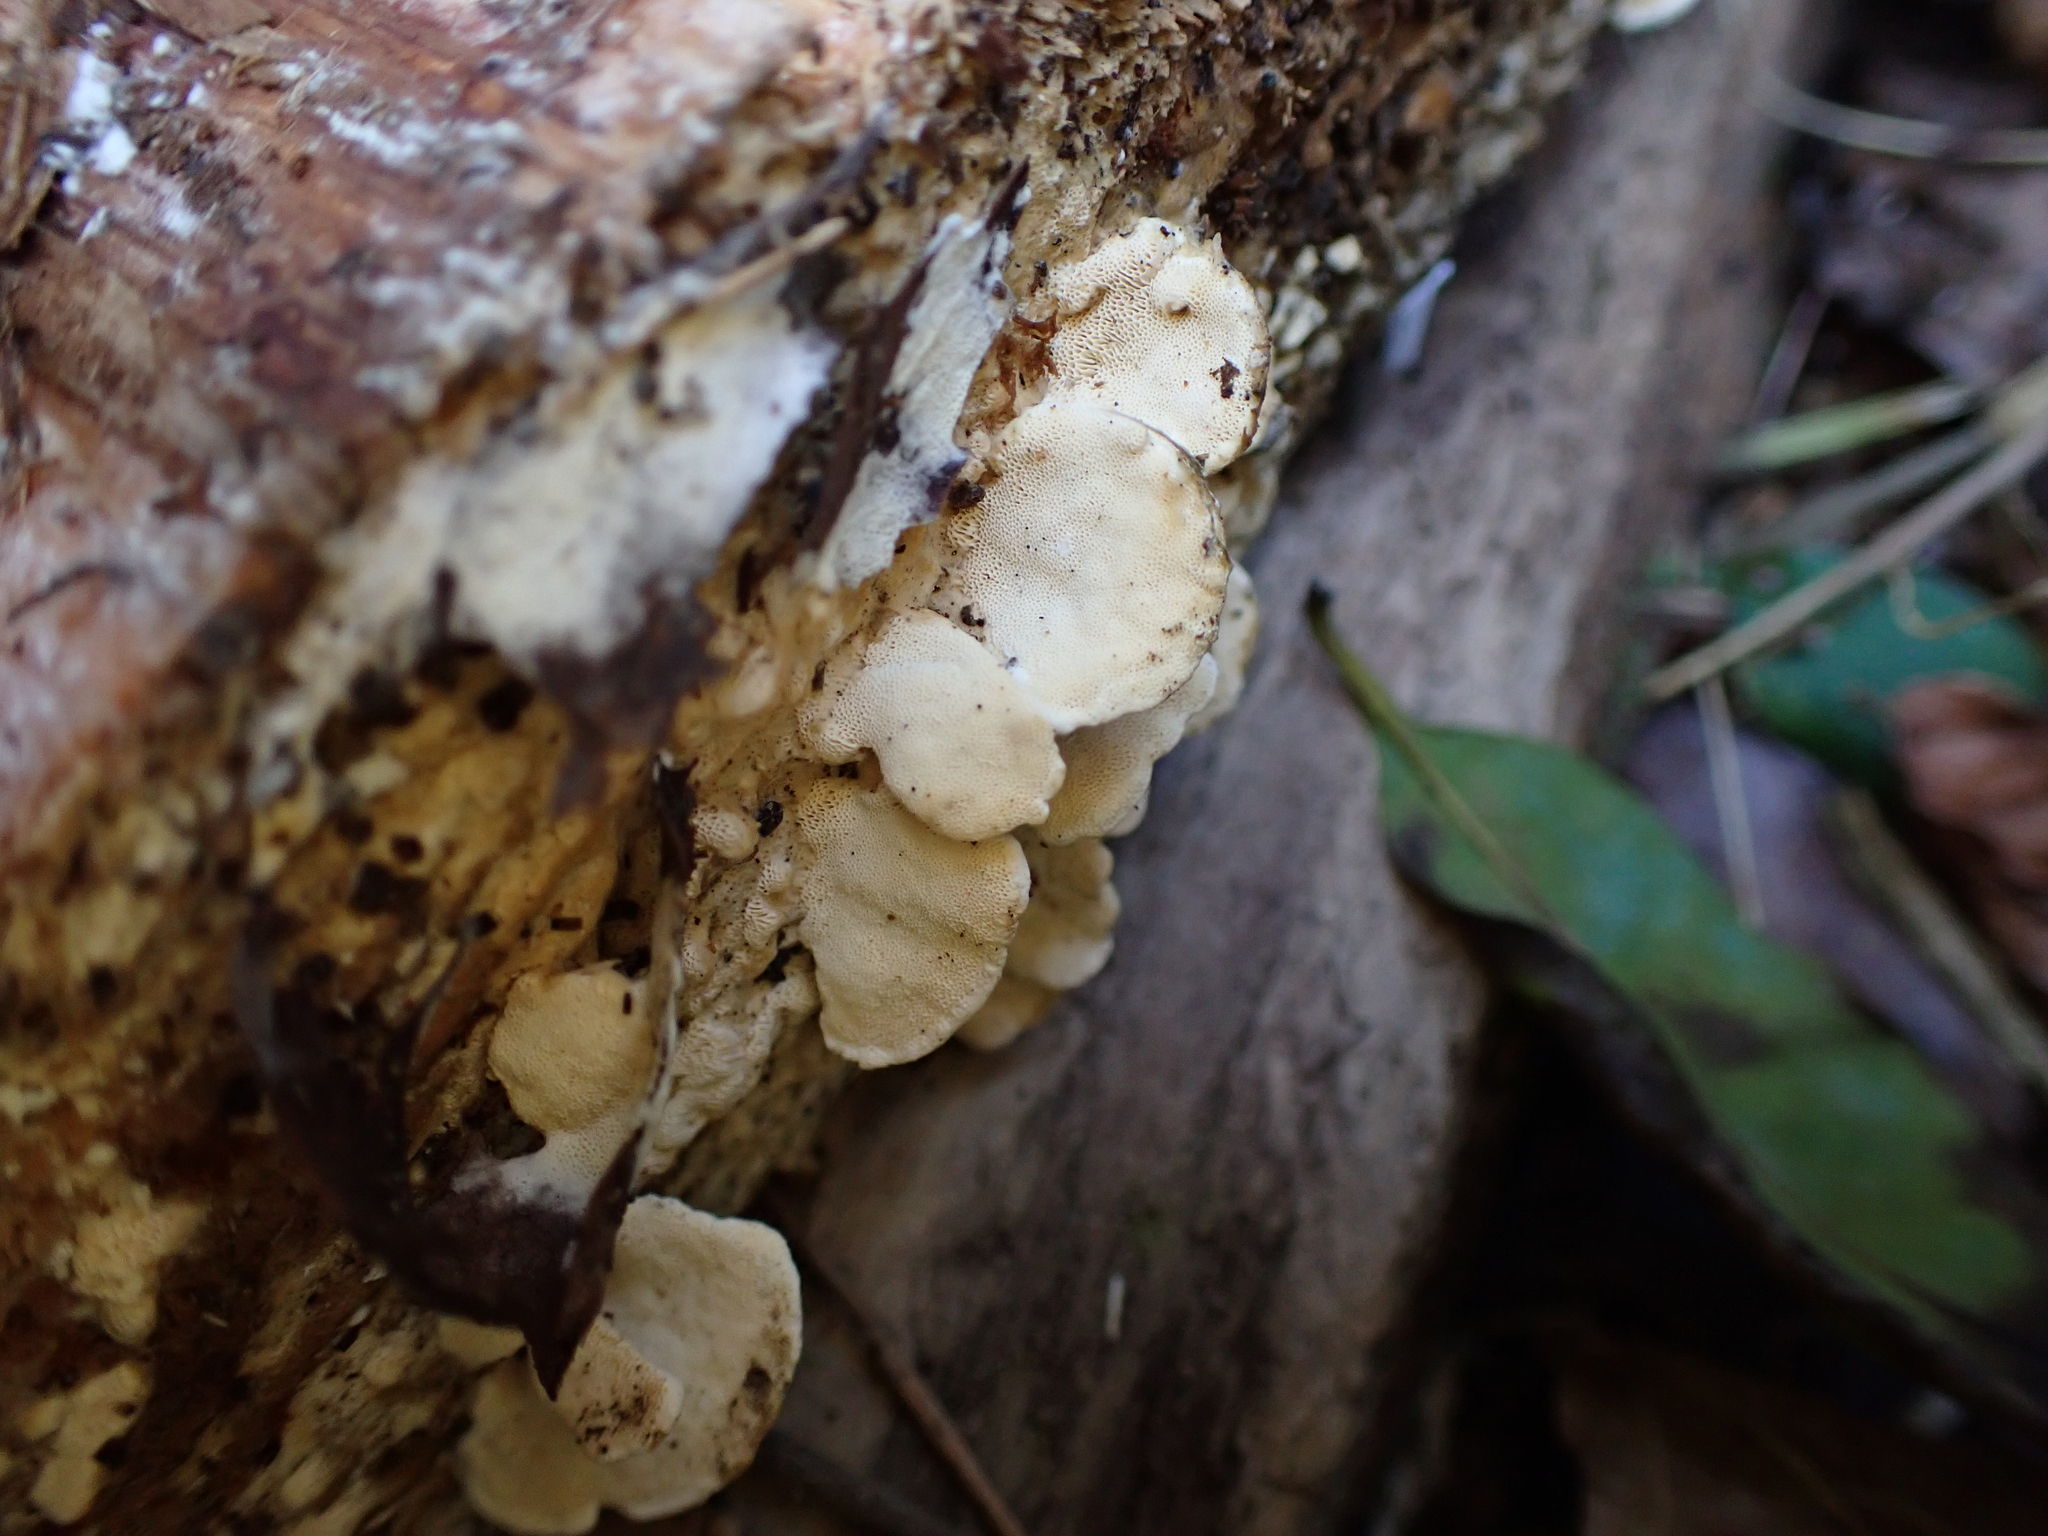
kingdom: Fungi
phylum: Basidiomycota
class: Agaricomycetes
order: Hymenochaetales
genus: Cyanotrama
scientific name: Cyanotrama
